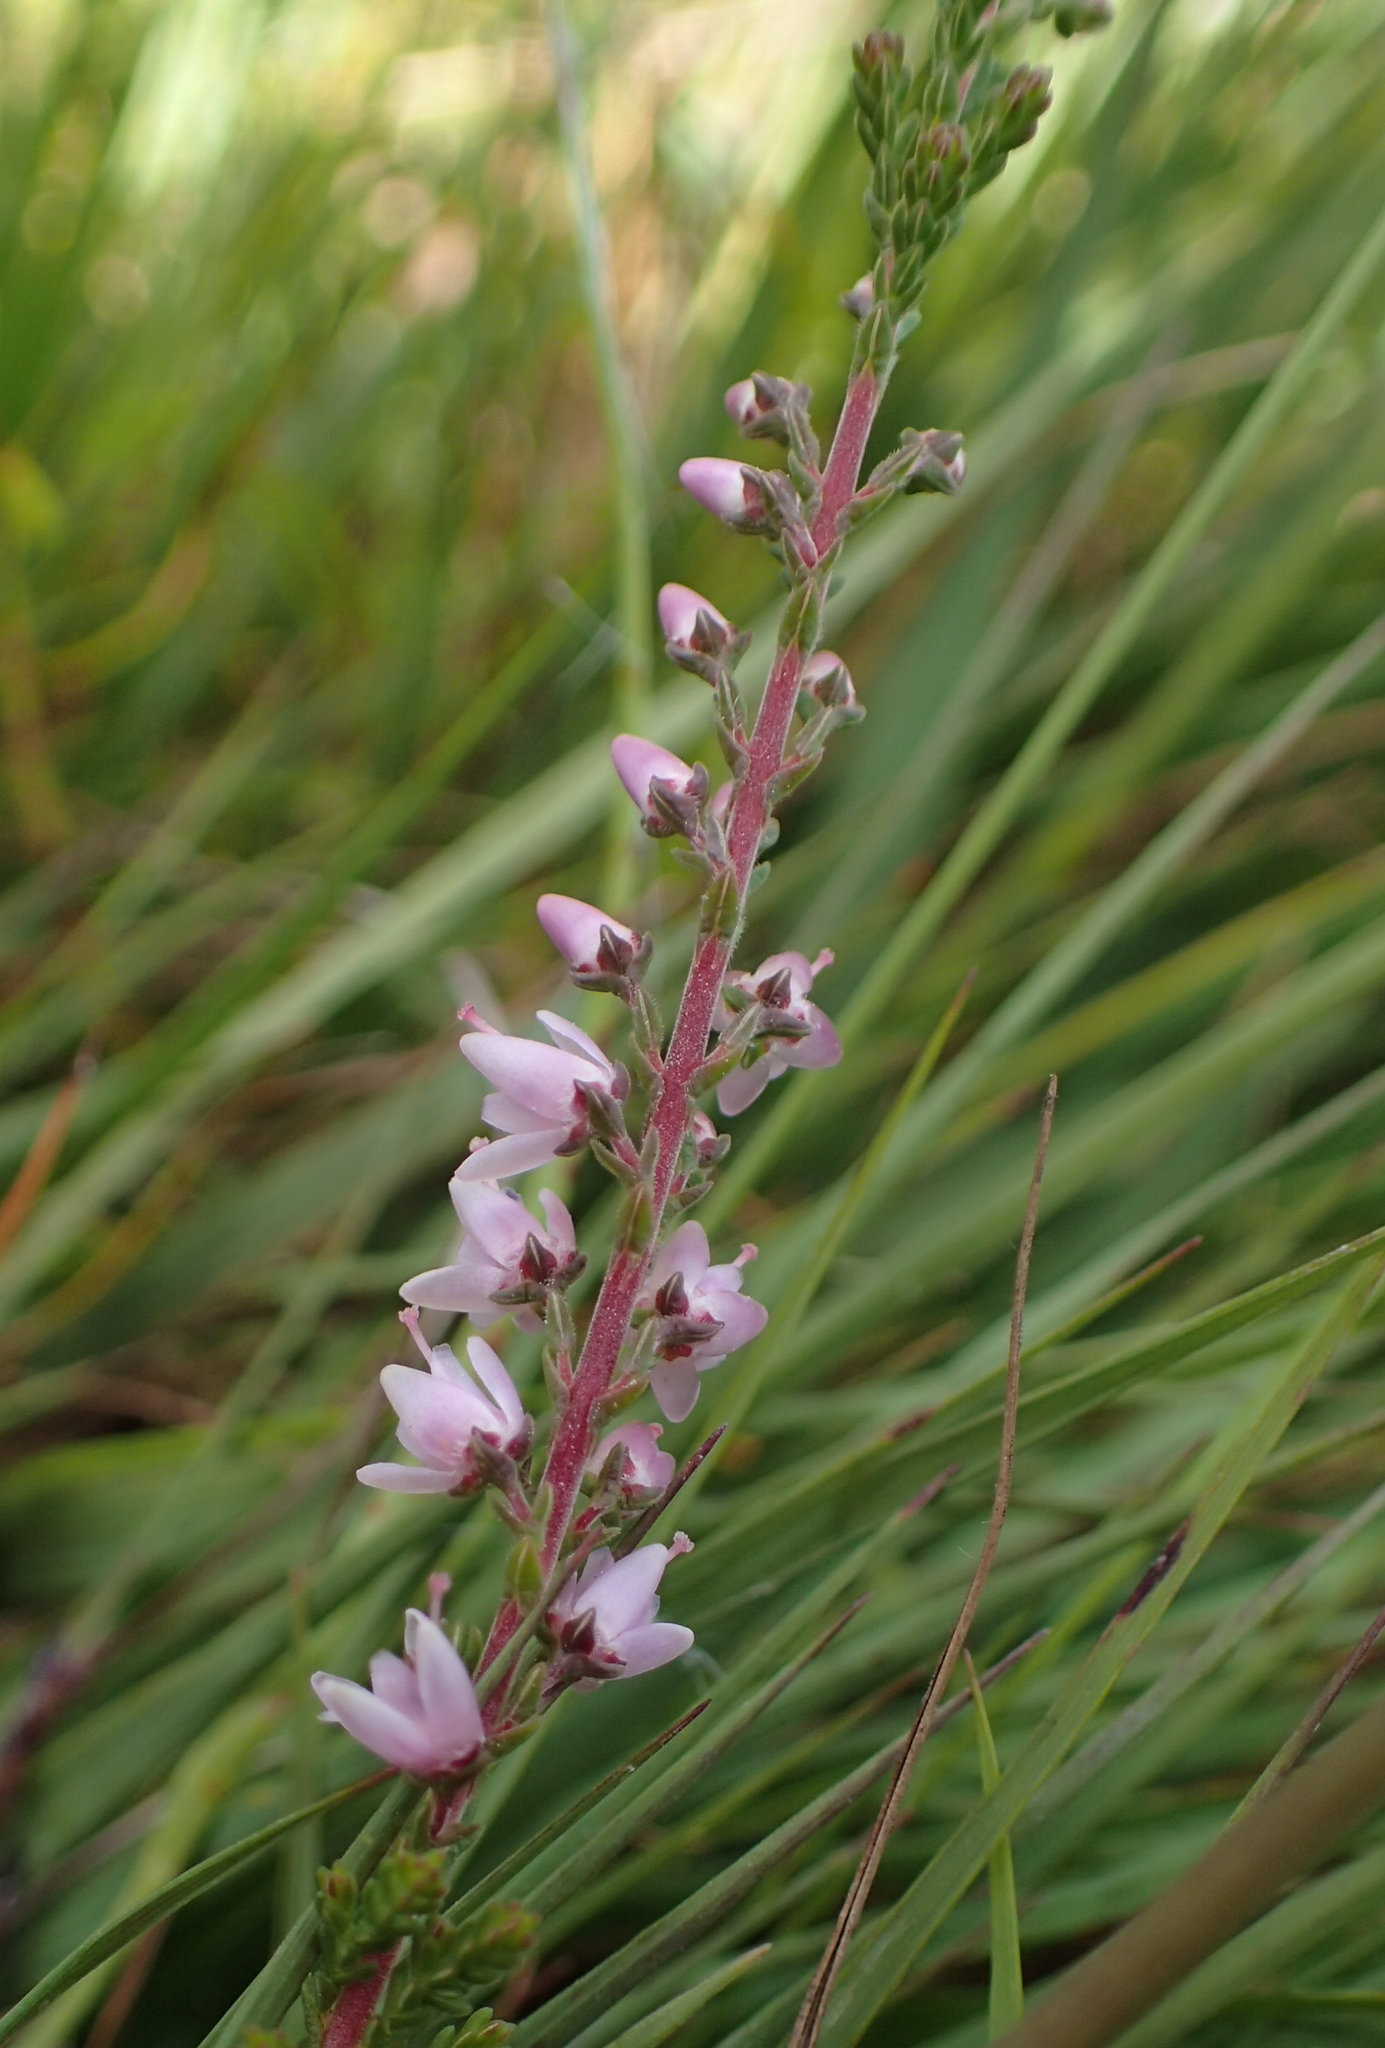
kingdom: Plantae
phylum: Tracheophyta
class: Magnoliopsida
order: Ericales
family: Ericaceae
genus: Calluna
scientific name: Calluna vulgaris
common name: Heather
